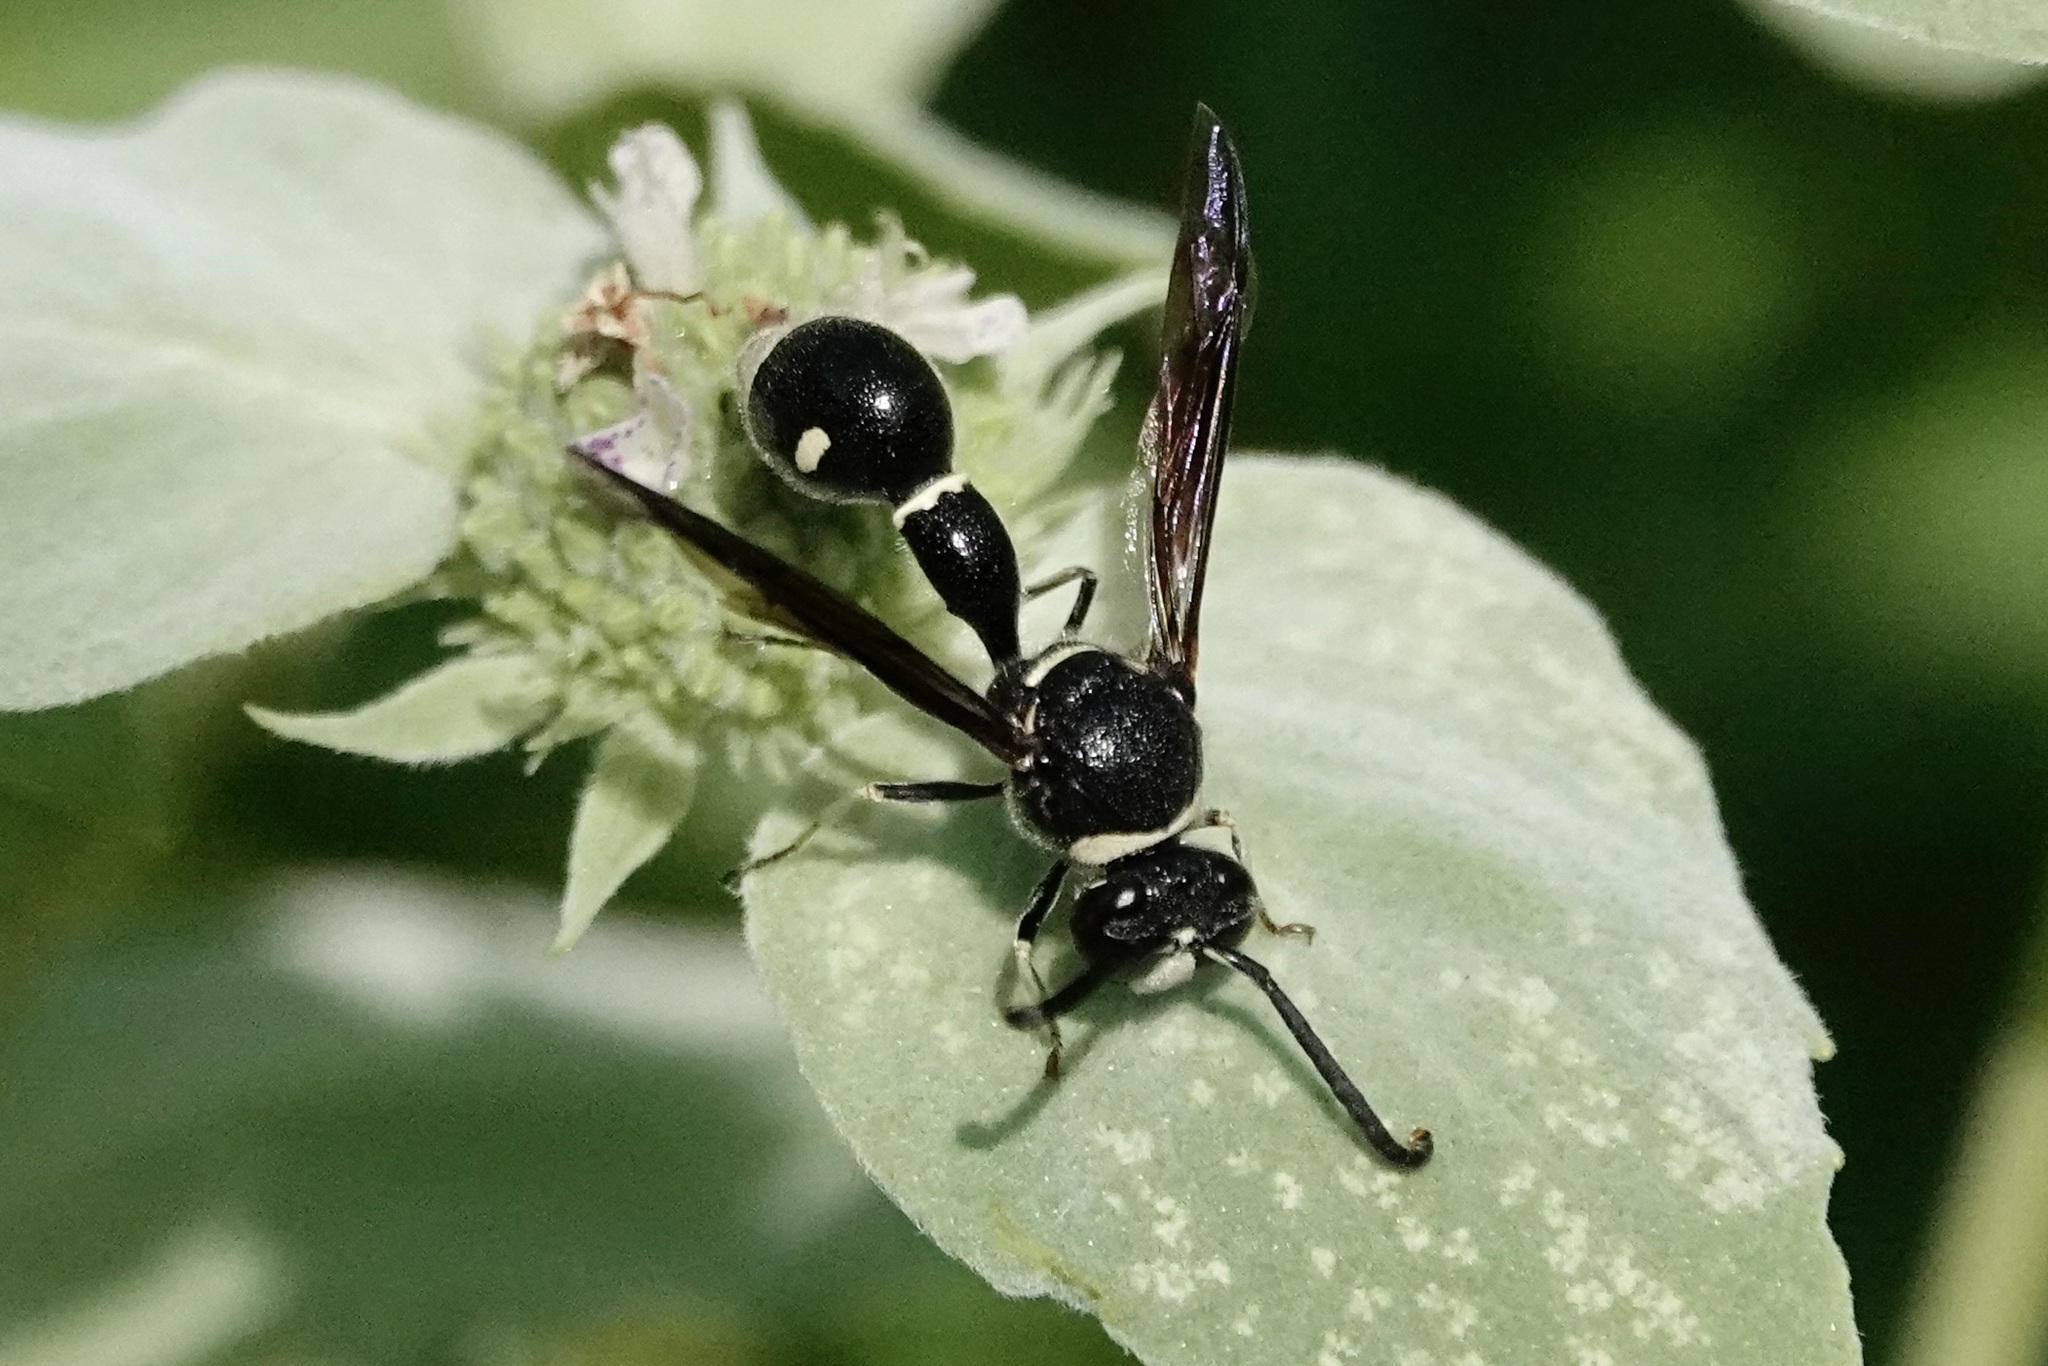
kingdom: Animalia
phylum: Arthropoda
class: Insecta
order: Hymenoptera
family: Vespidae
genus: Eumenes
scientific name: Eumenes fraternus
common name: Fraternal potter wasp
